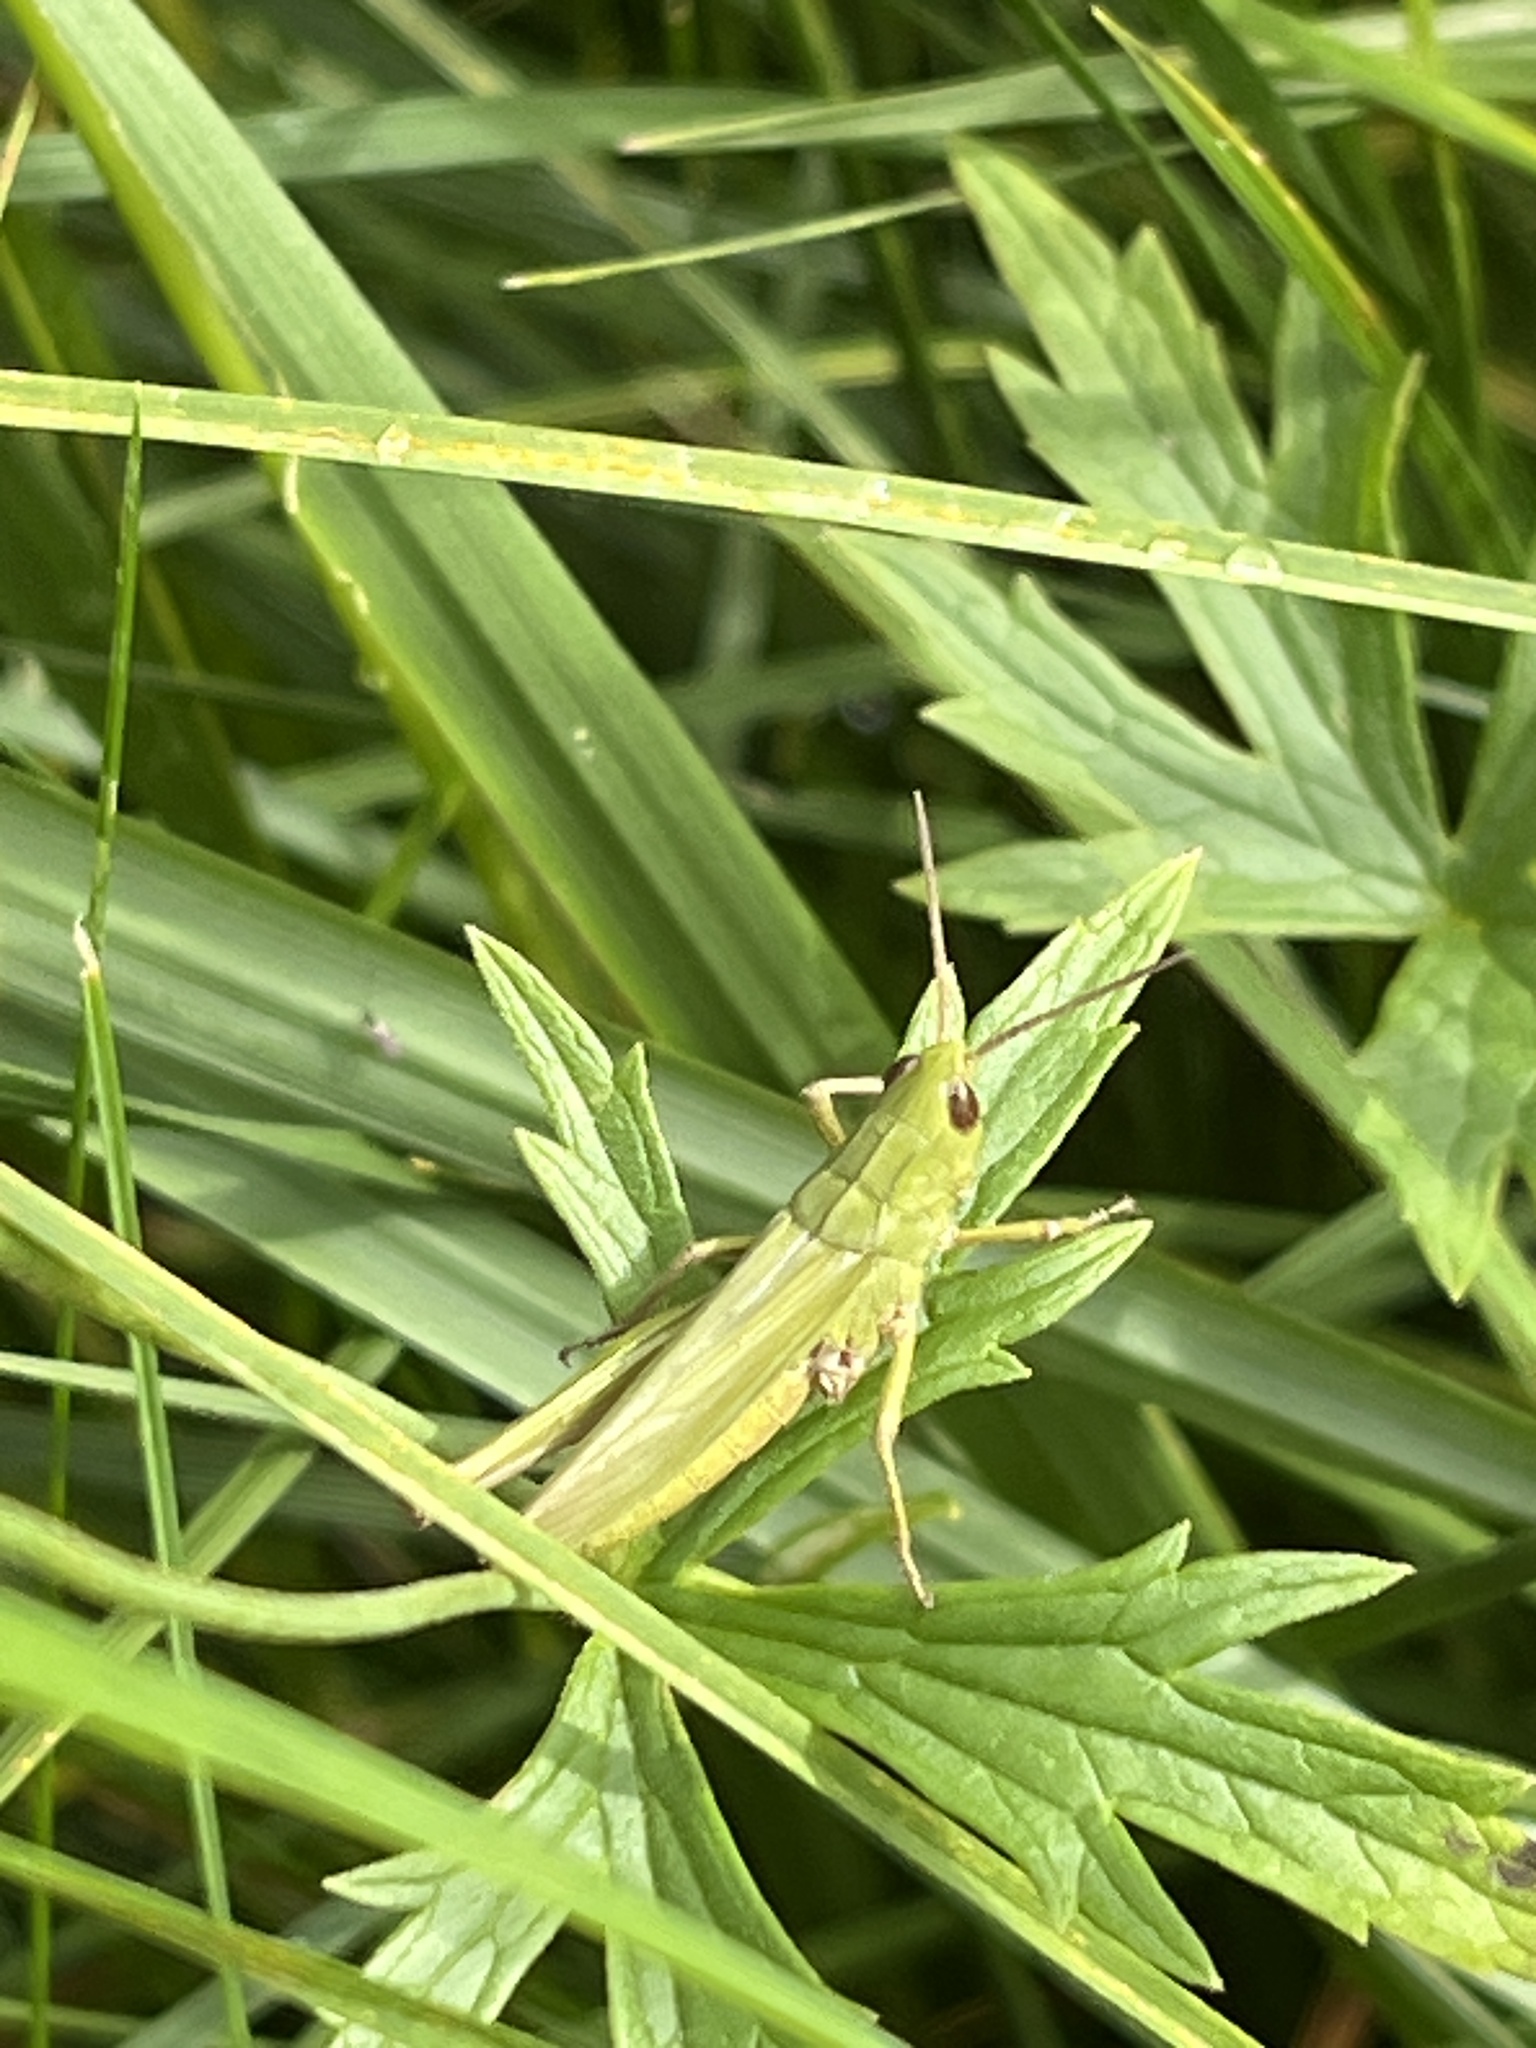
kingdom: Animalia
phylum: Arthropoda
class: Insecta
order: Orthoptera
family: Acrididae
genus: Chorthippus
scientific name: Chorthippus dorsatus
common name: Steppe grasshopper
